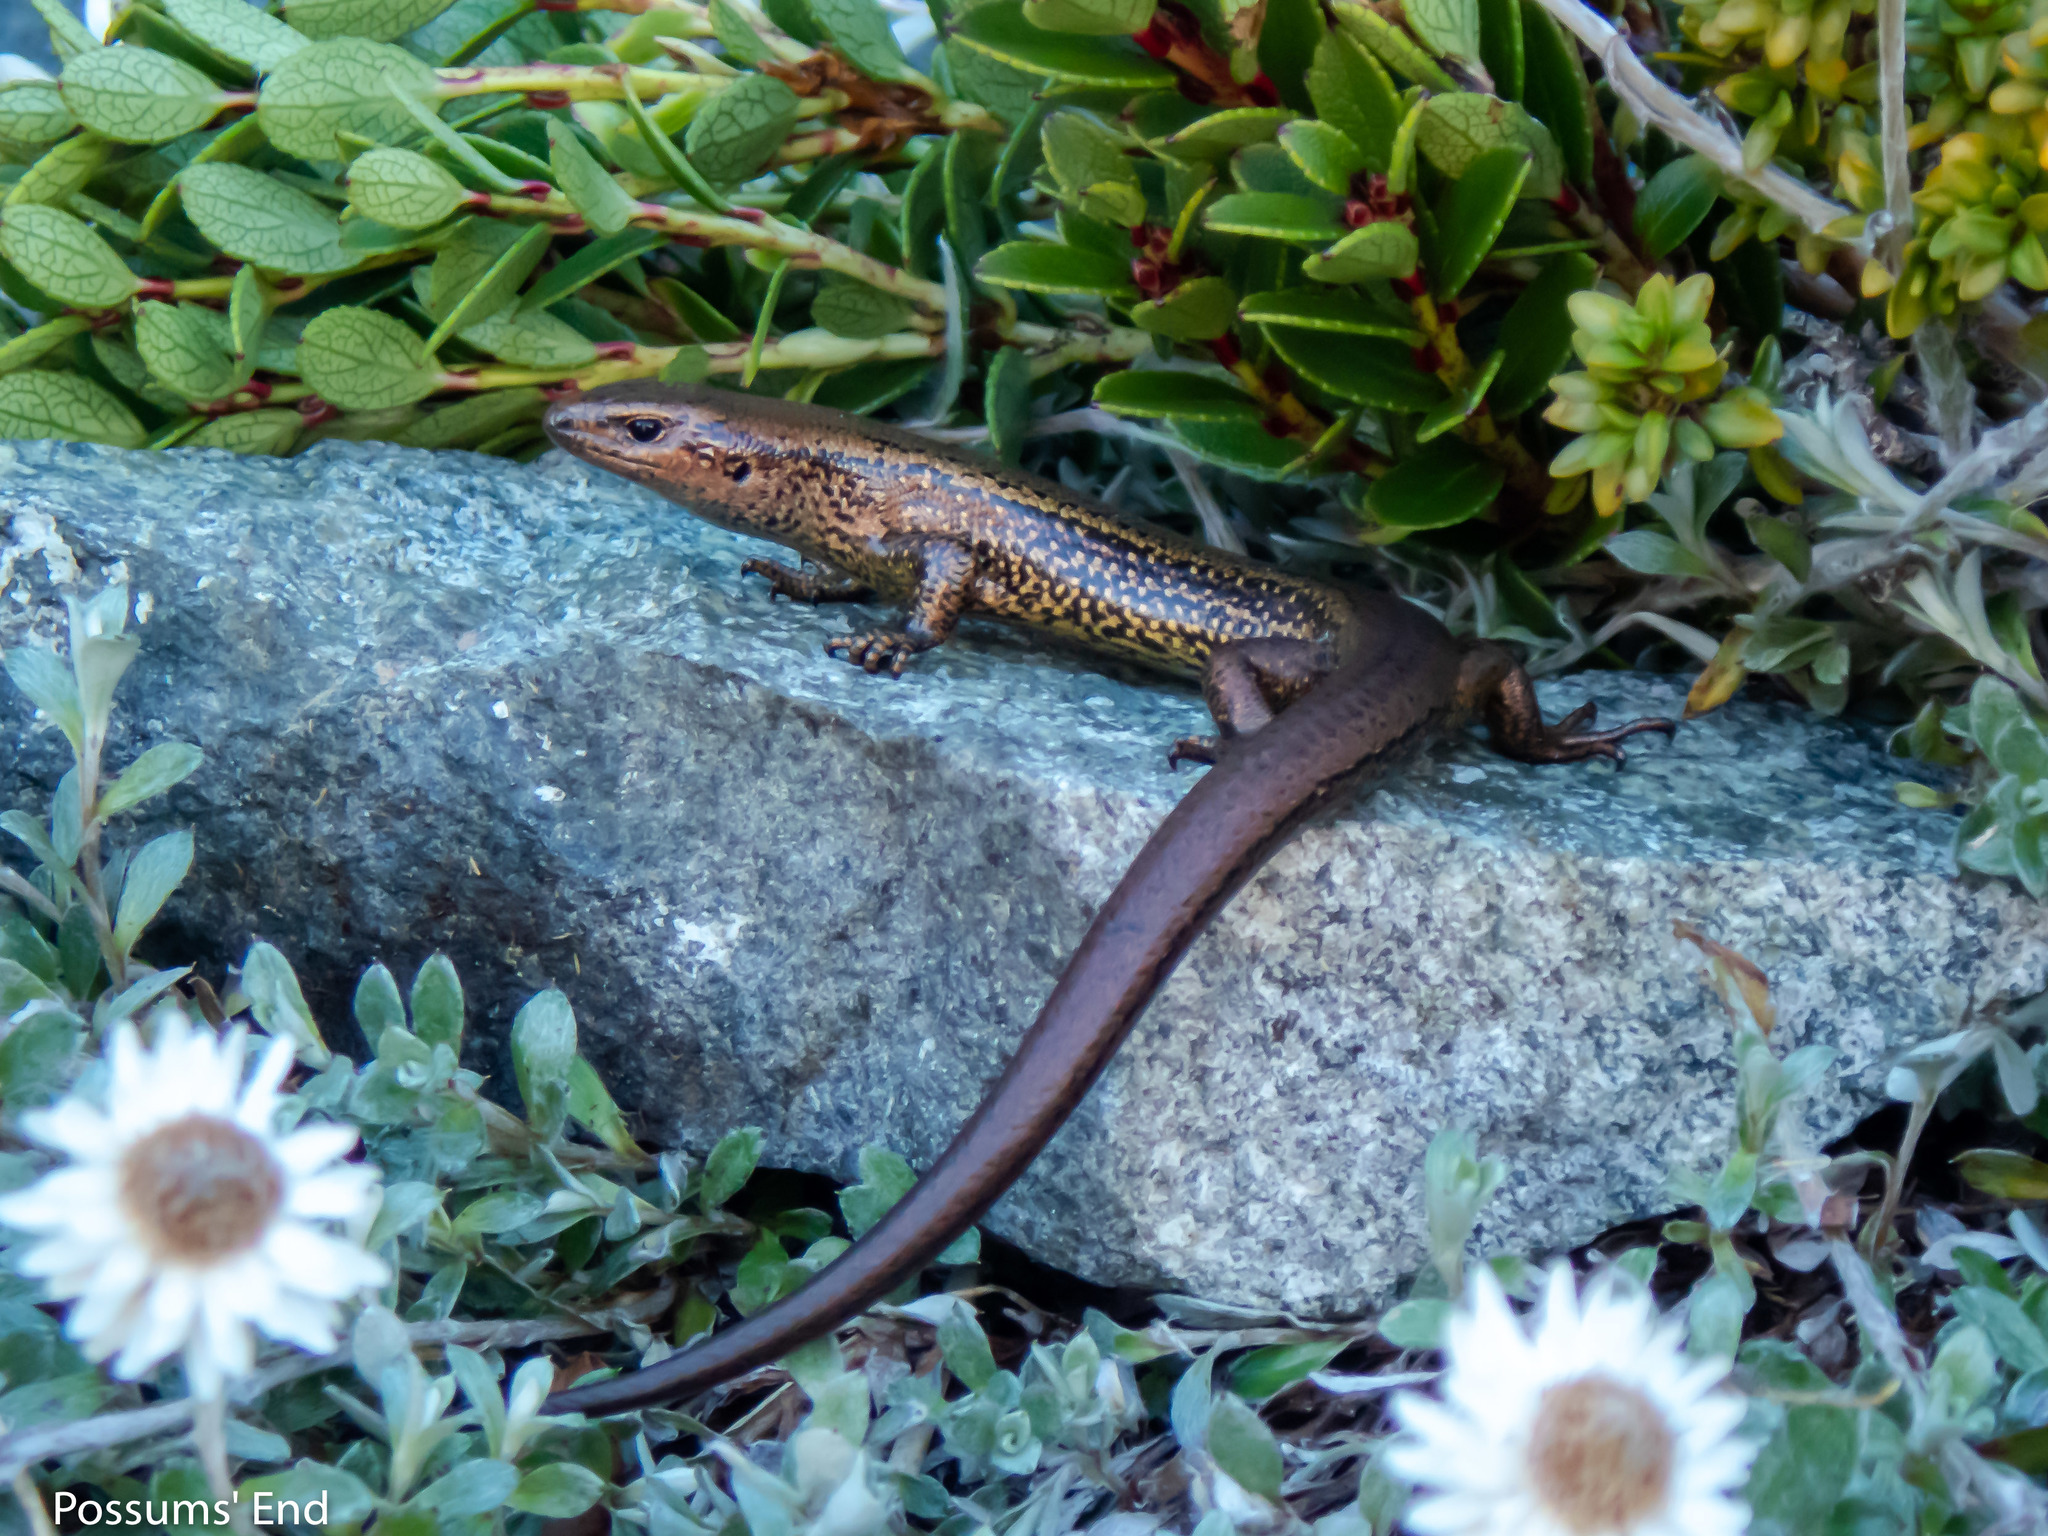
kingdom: Animalia
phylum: Chordata
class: Squamata
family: Scincidae
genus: Oligosoma
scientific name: Oligosoma awakopaka
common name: Awakopaka skink
